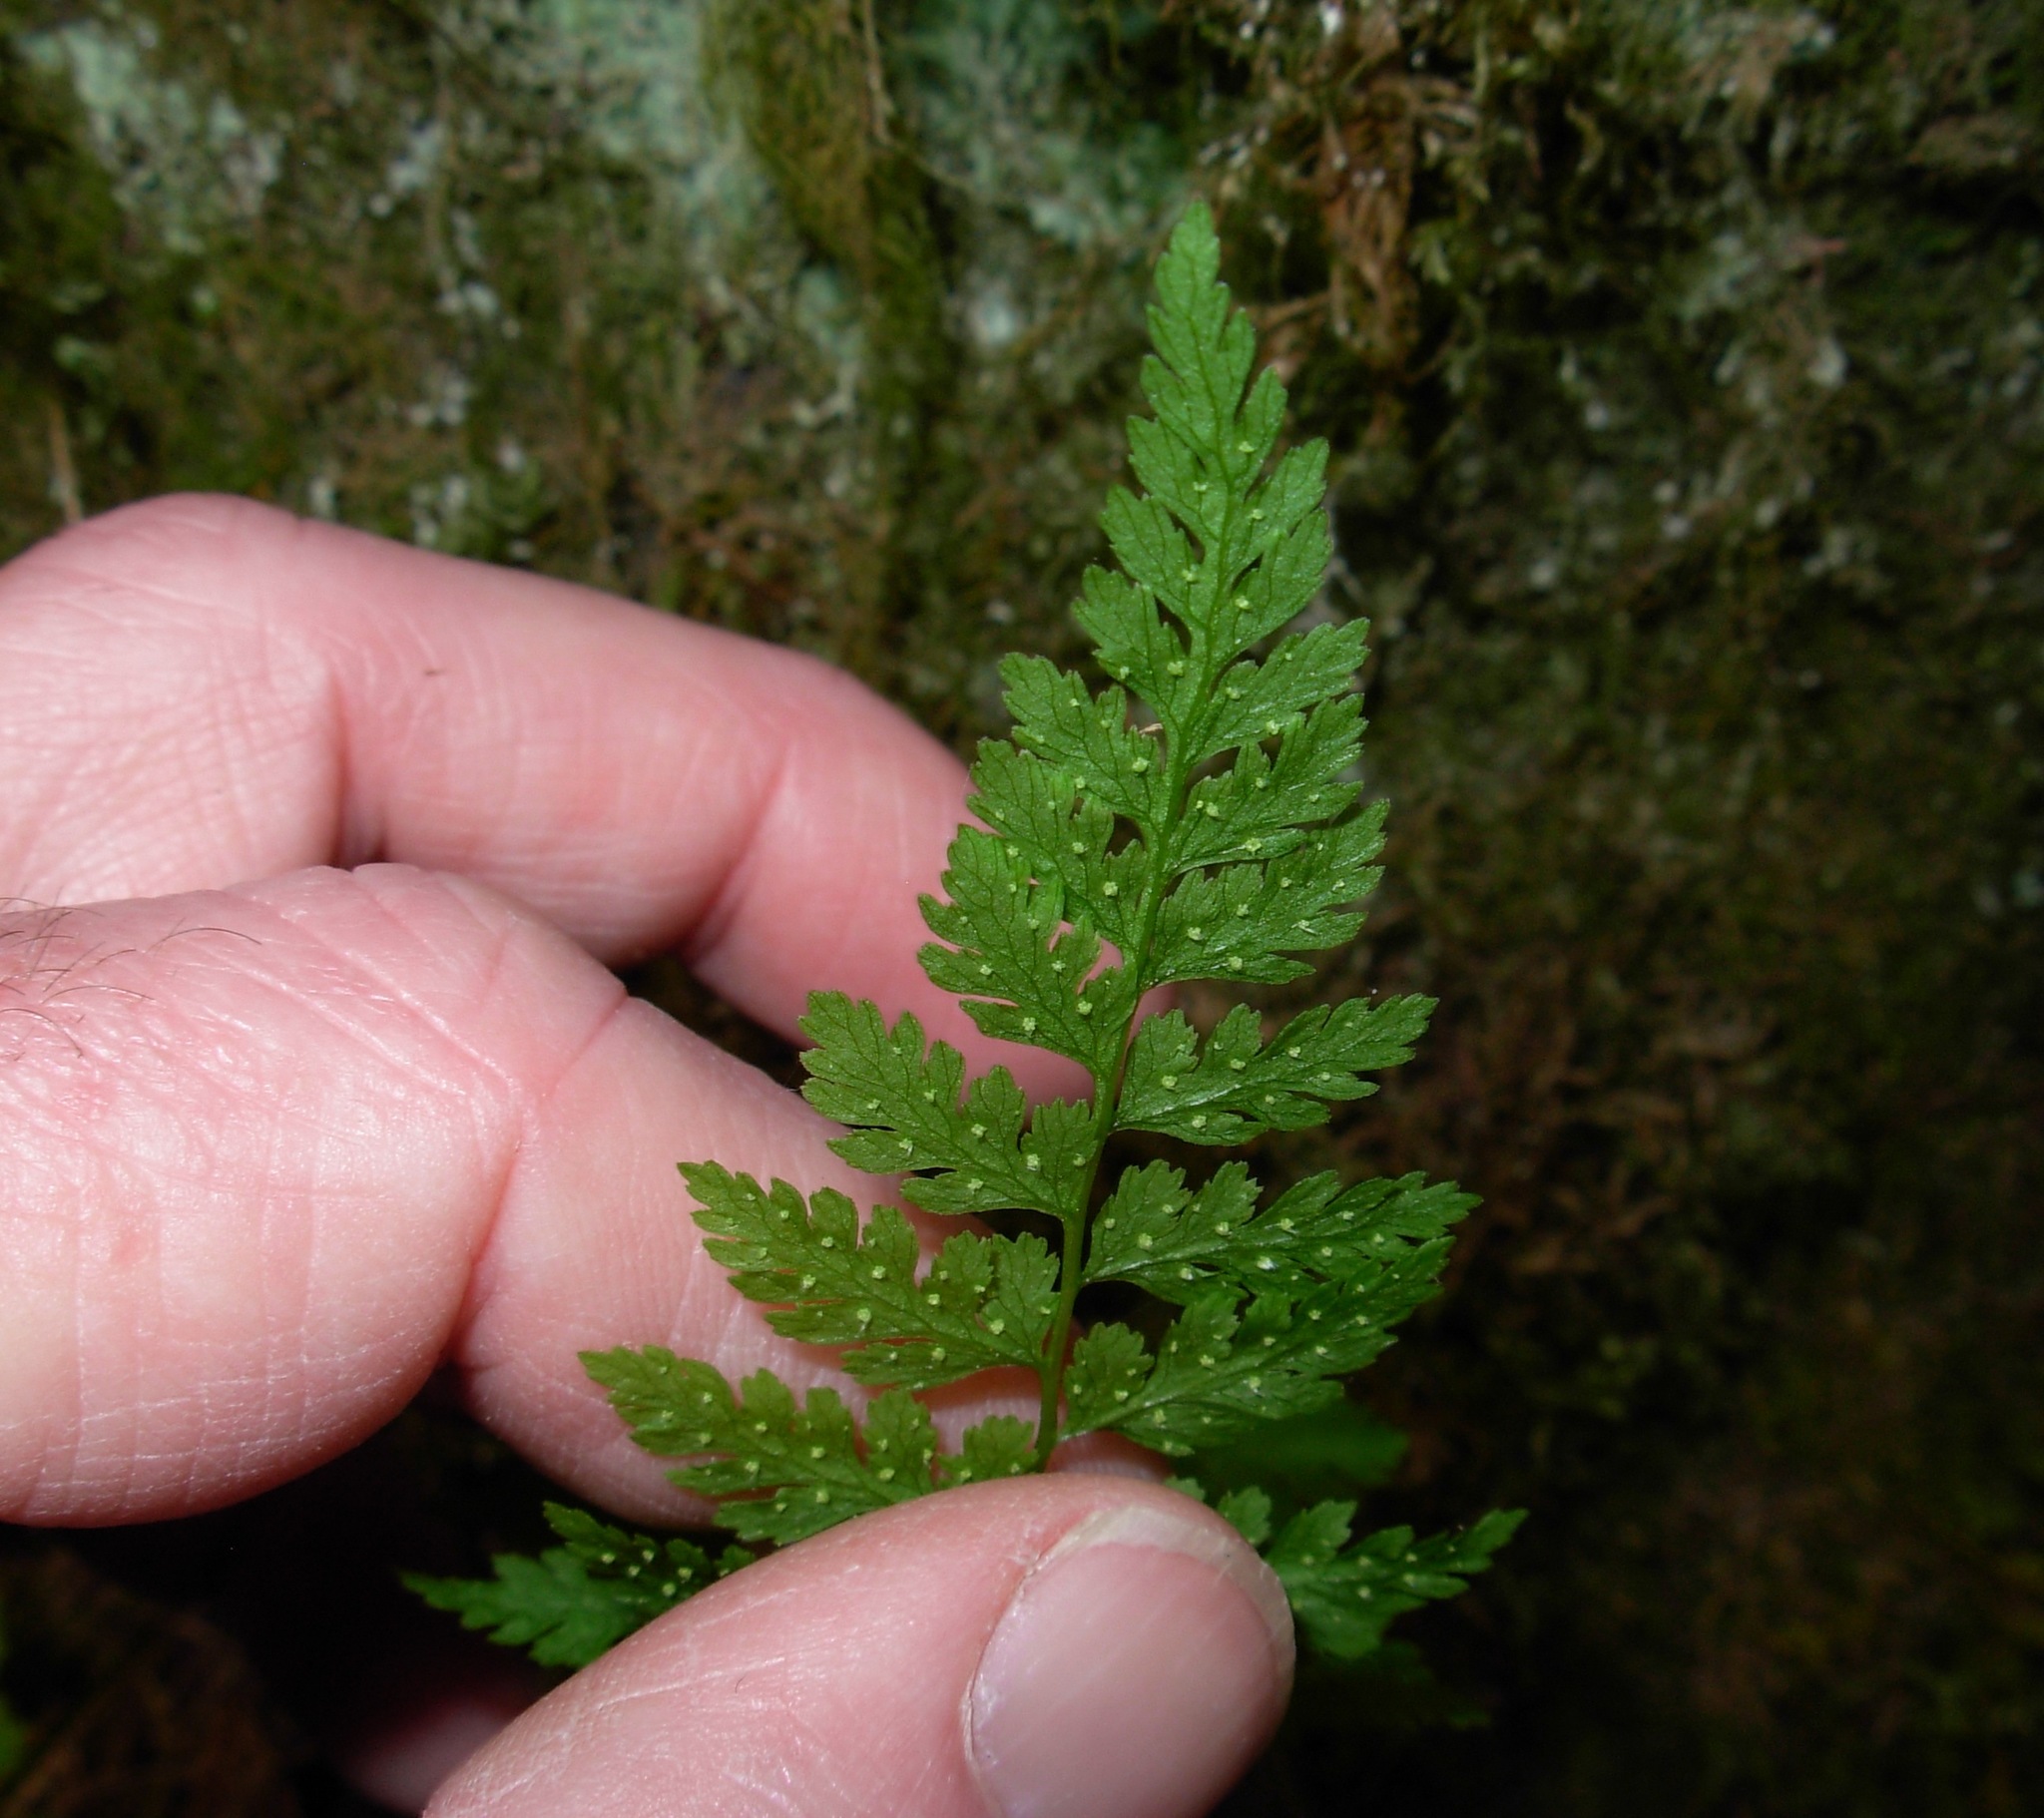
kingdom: Plantae
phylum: Tracheophyta
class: Polypodiopsida
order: Polypodiales
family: Cystopteridaceae
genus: Cystopteris
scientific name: Cystopteris fragilis
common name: Brittle bladder fern
